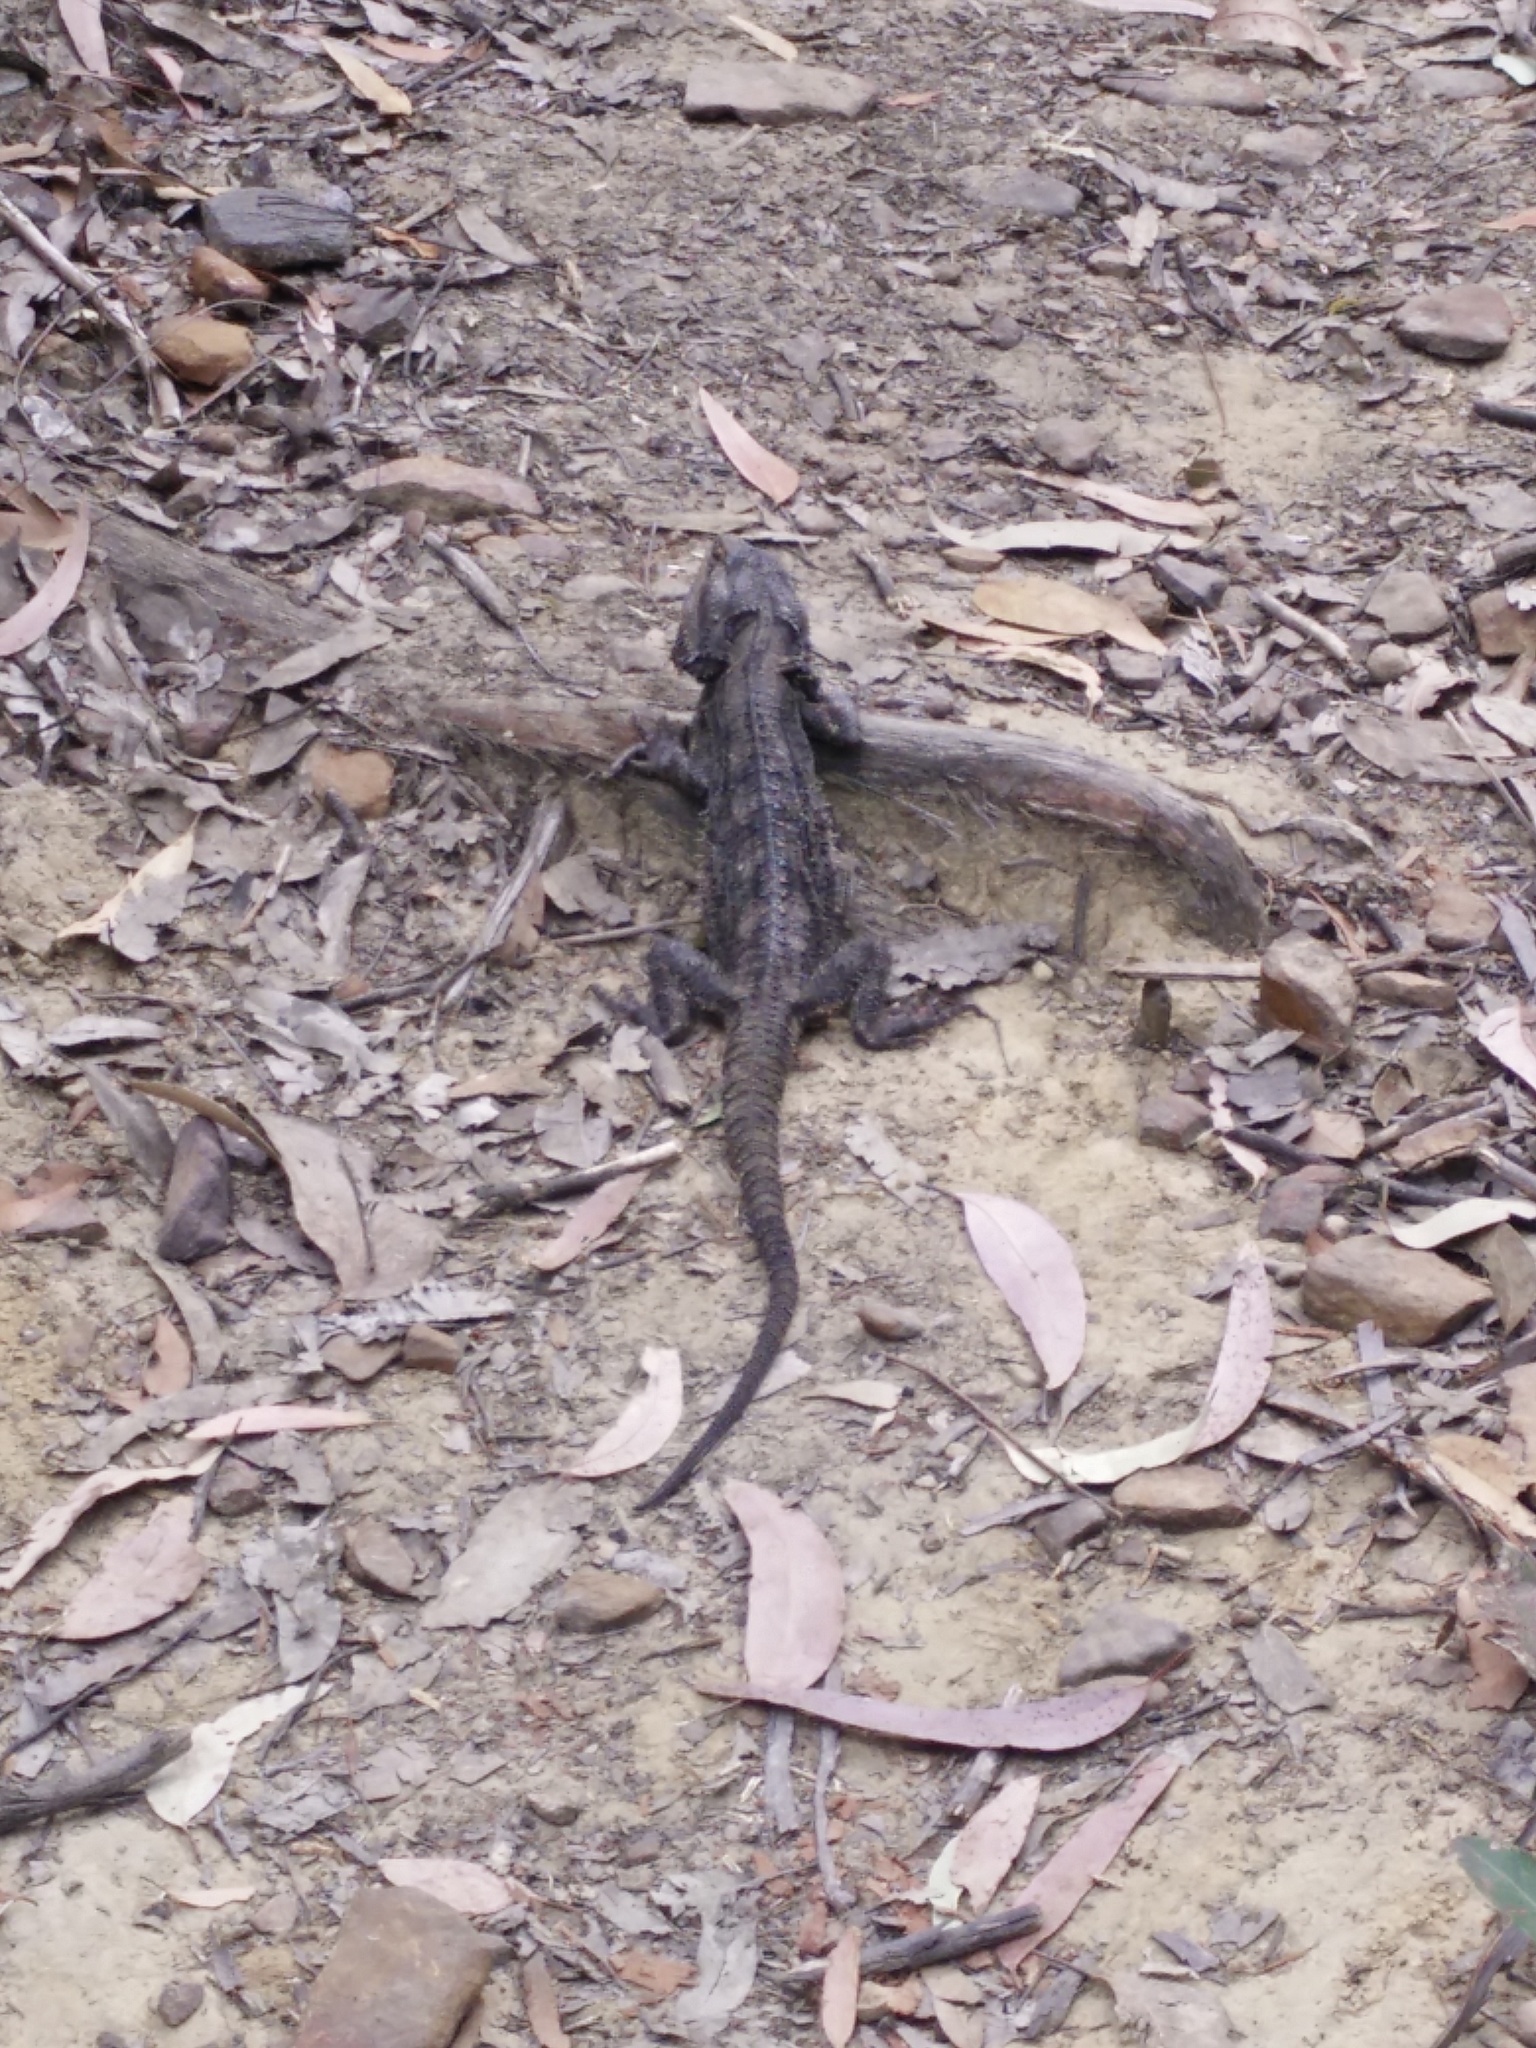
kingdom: Animalia
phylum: Chordata
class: Squamata
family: Agamidae
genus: Pogona
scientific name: Pogona barbata
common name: Bearded dragon
